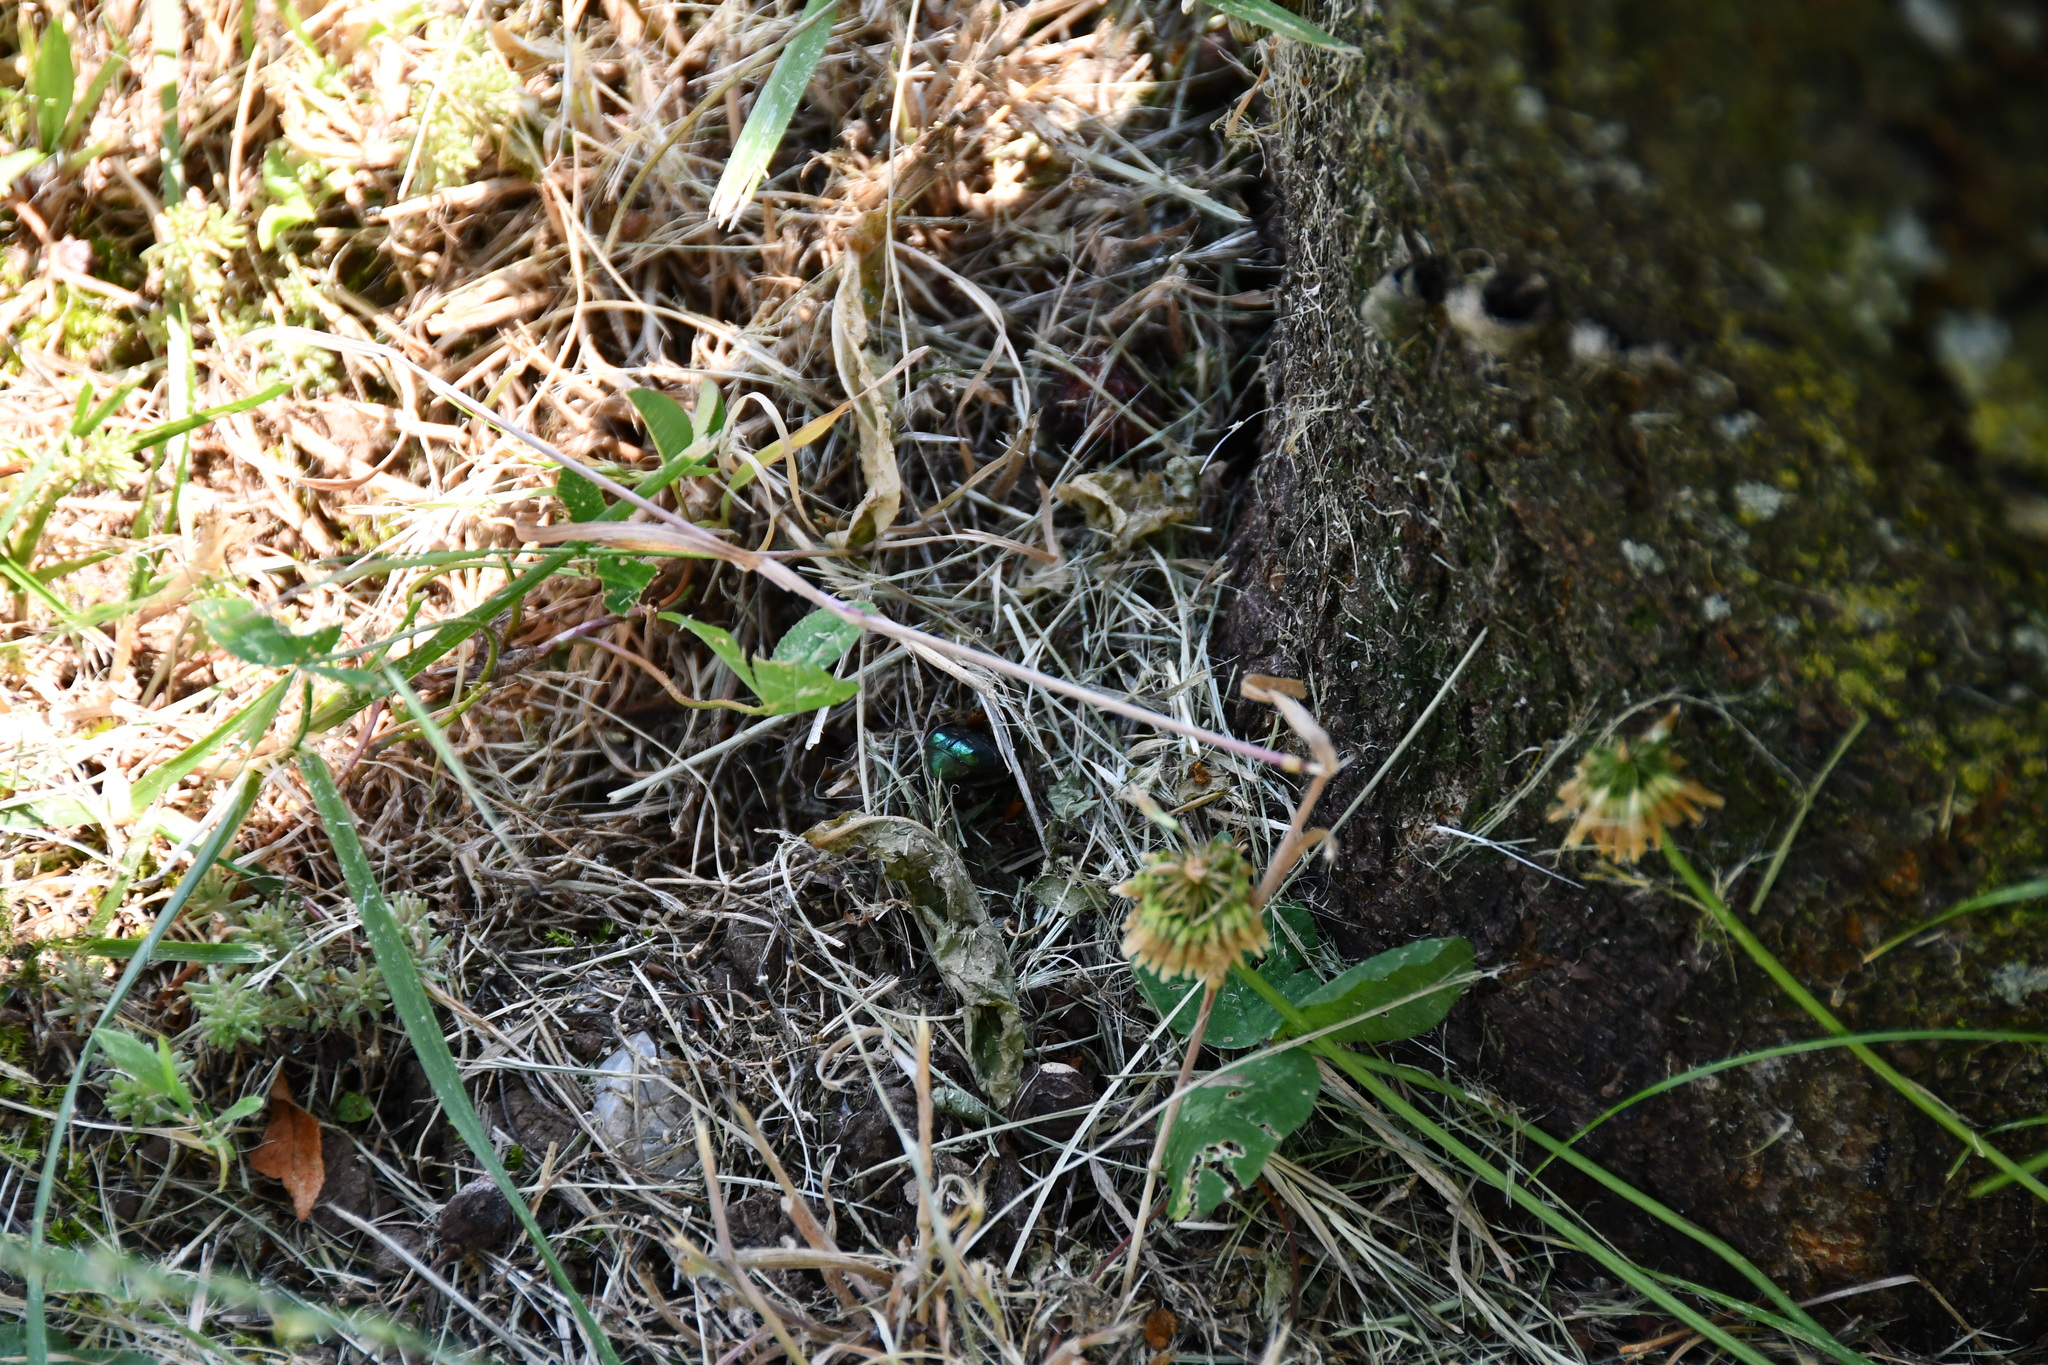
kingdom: Animalia
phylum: Arthropoda
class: Insecta
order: Coleoptera
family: Scarabaeidae
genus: Cetonia
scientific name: Cetonia aurata
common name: Rose chafer
